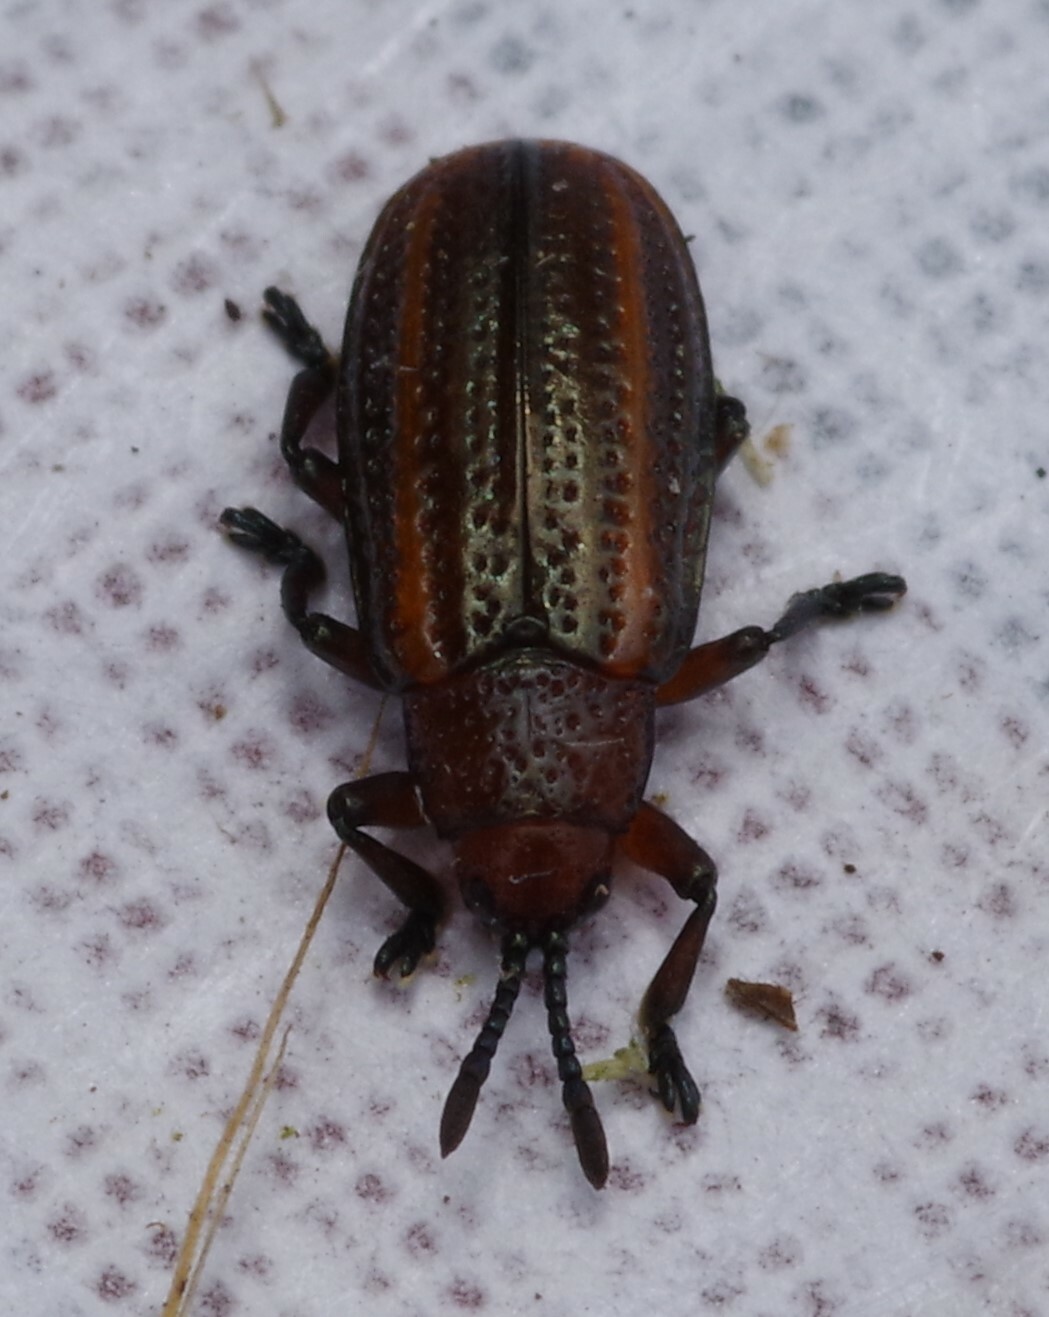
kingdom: Animalia
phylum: Arthropoda
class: Insecta
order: Coleoptera
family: Chrysomelidae
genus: Microrhopala
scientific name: Microrhopala vittata
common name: Goldenrod leaf miner beetle
